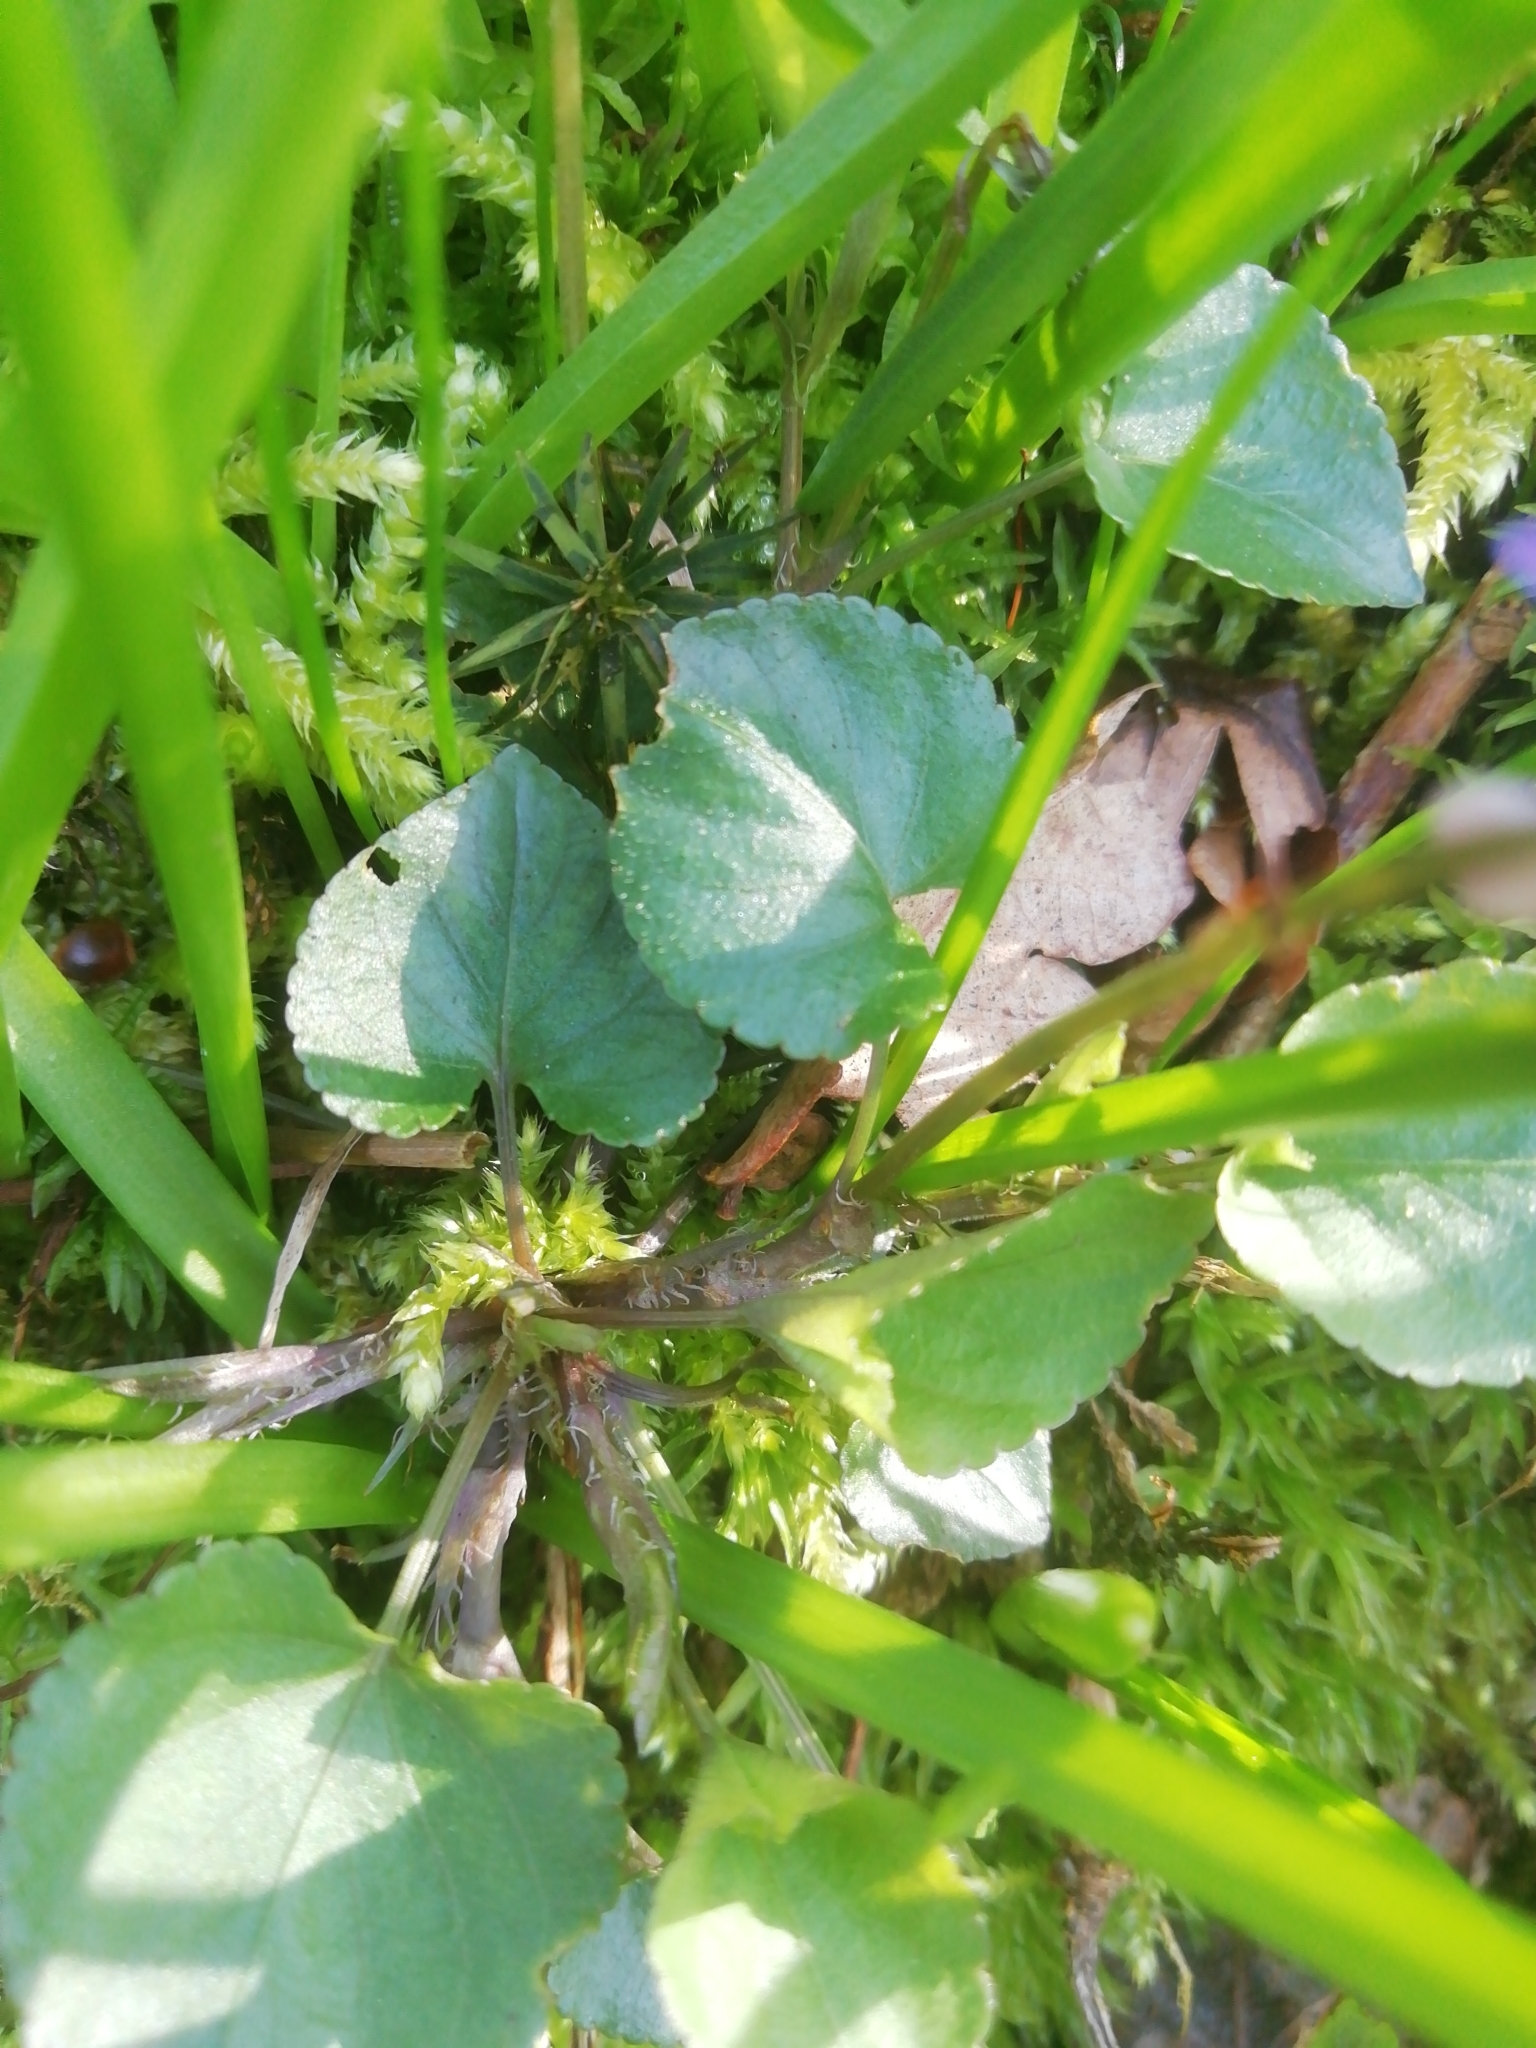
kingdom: Plantae
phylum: Tracheophyta
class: Magnoliopsida
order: Malpighiales
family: Violaceae
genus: Viola
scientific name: Viola riviniana
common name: Common dog-violet
